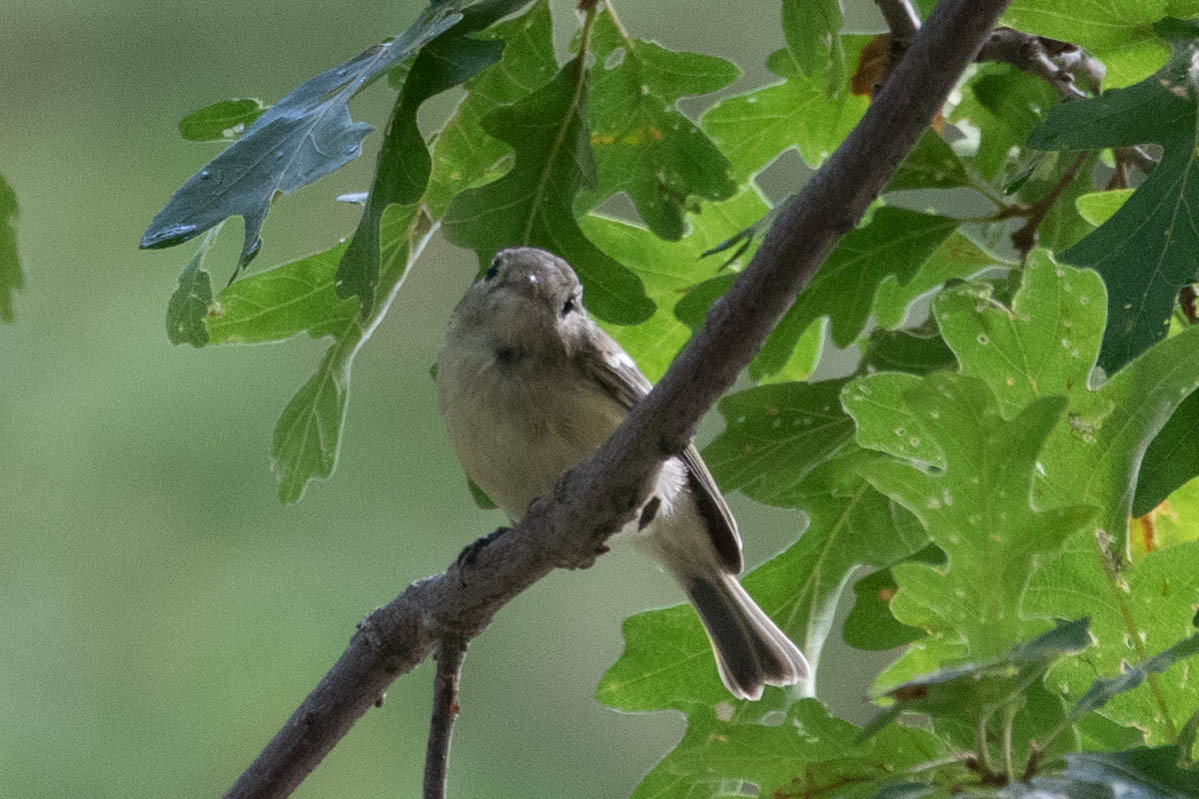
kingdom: Animalia
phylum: Chordata
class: Aves
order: Passeriformes
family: Vireonidae
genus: Vireo
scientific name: Vireo huttoni
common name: Hutton's vireo
